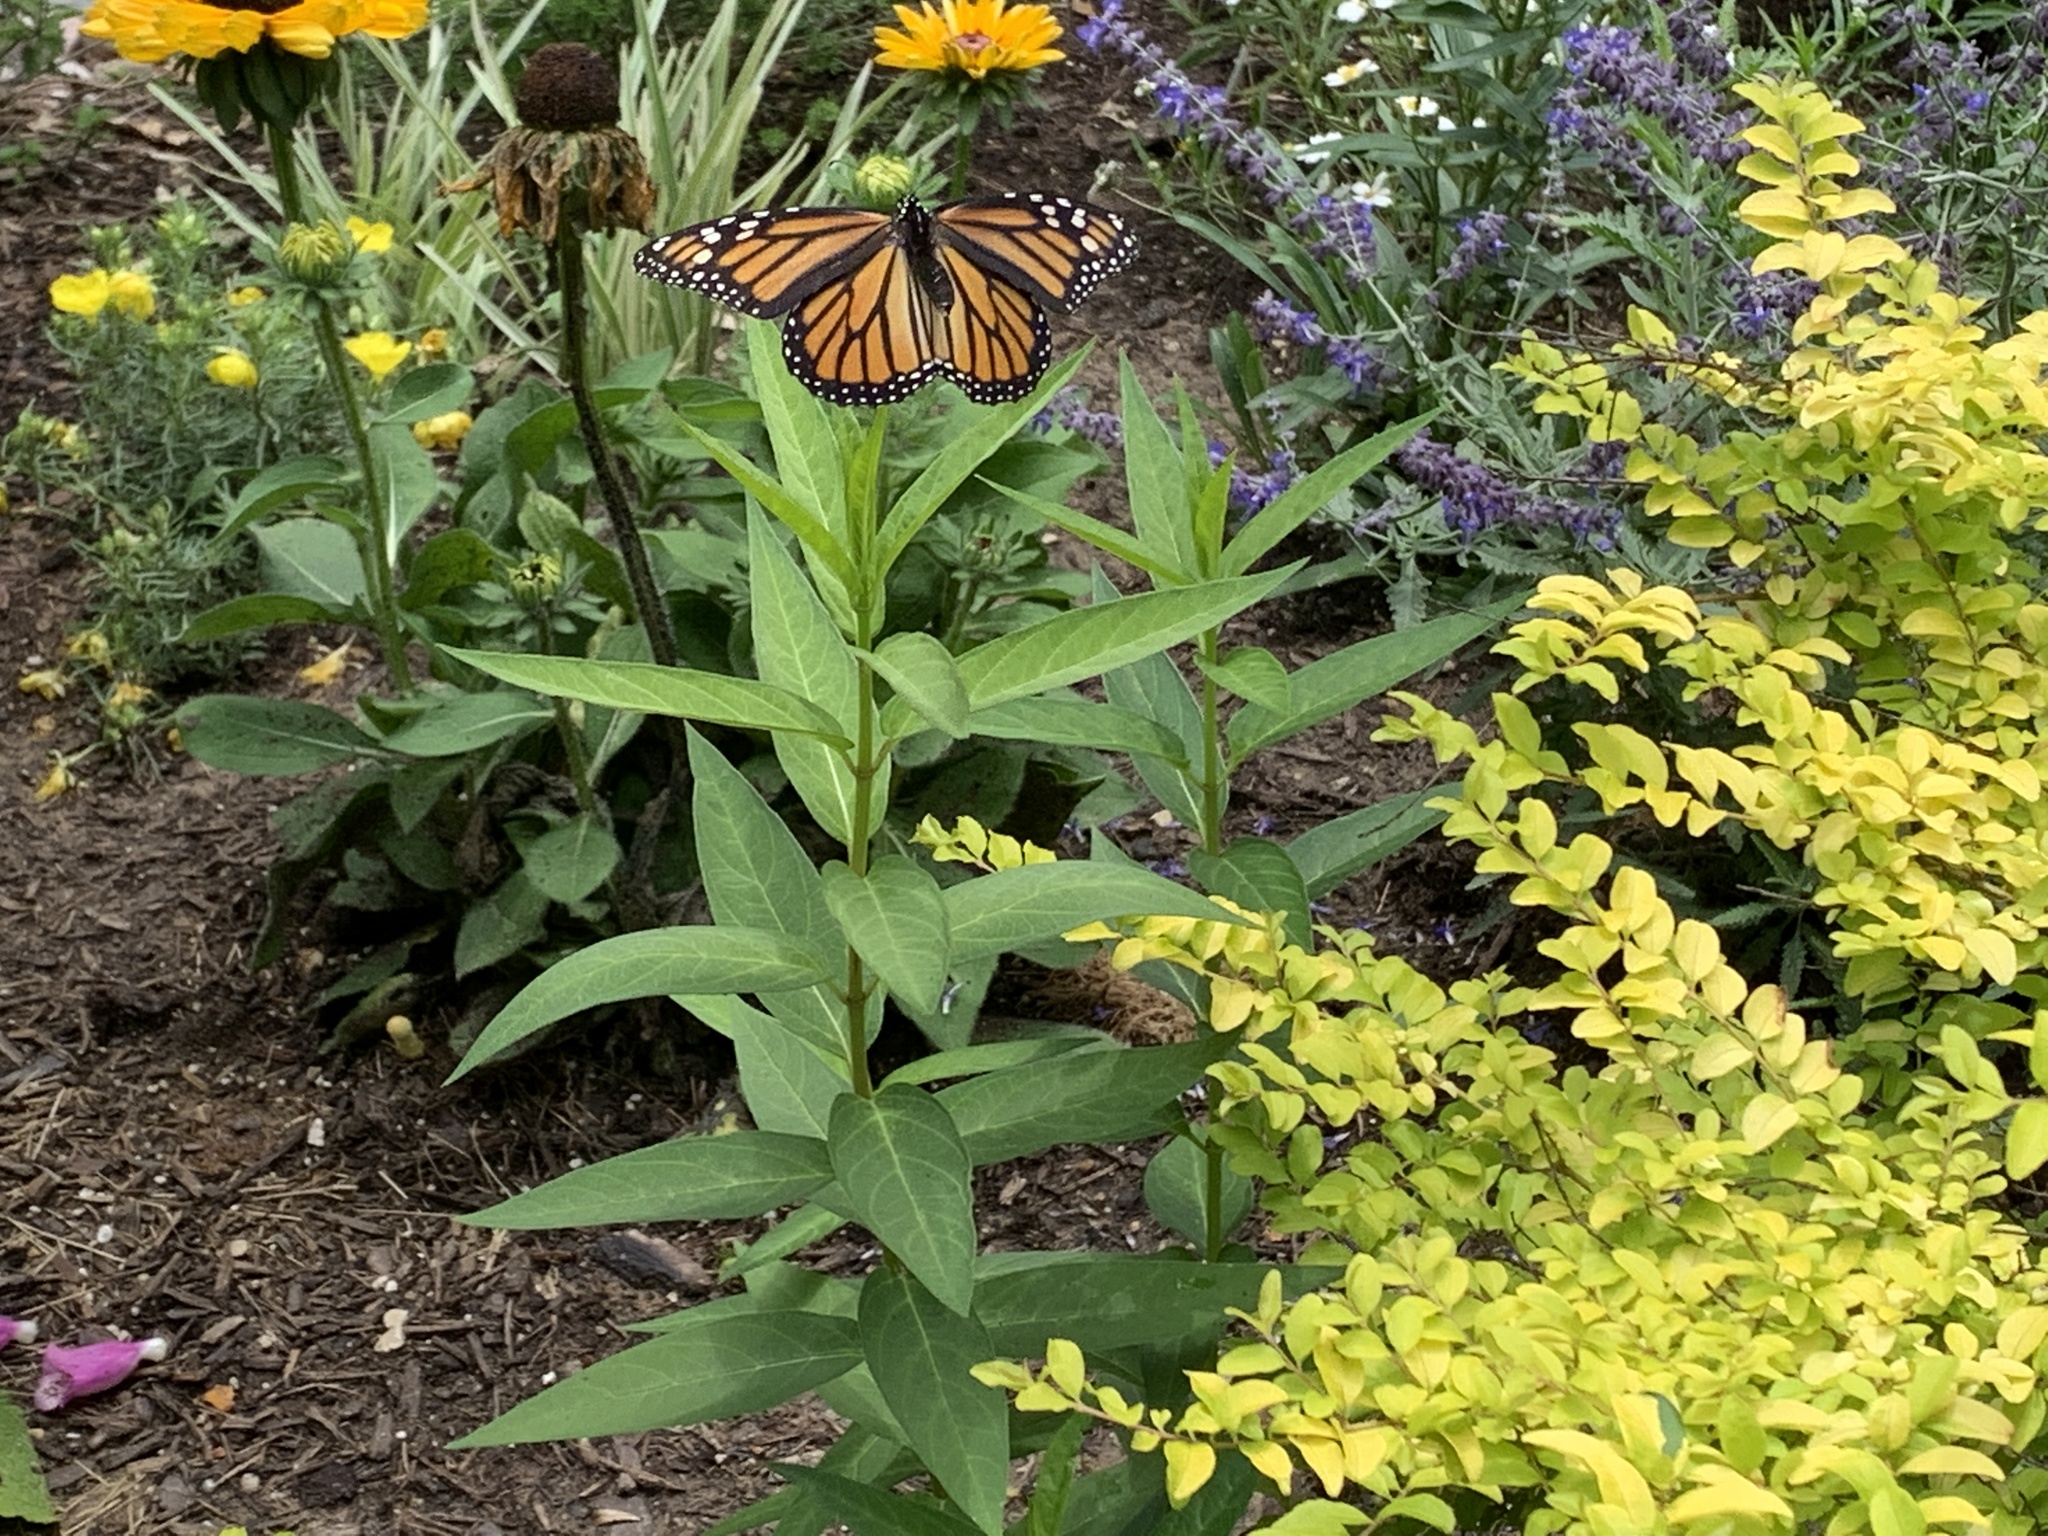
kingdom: Animalia
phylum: Arthropoda
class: Insecta
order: Lepidoptera
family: Nymphalidae
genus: Danaus
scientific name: Danaus plexippus
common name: Monarch
